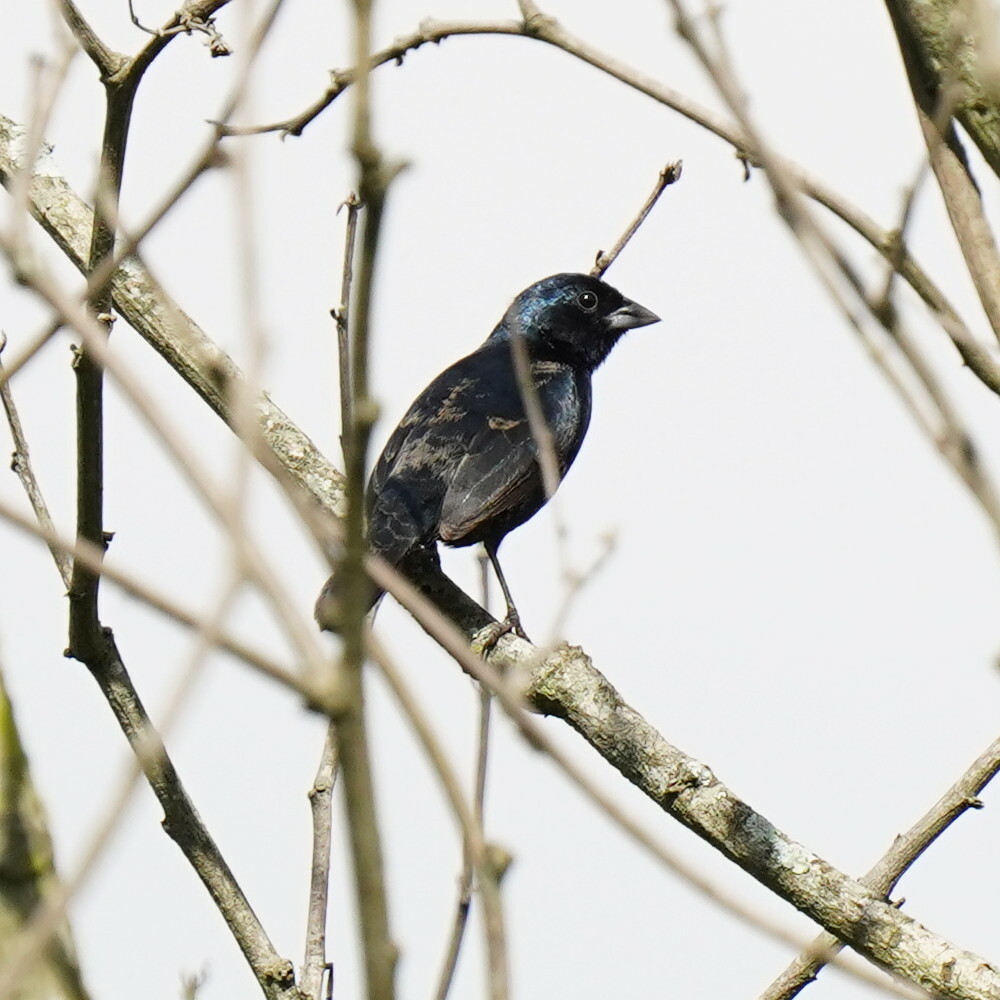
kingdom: Animalia
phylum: Chordata
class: Aves
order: Passeriformes
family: Thraupidae
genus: Volatinia
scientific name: Volatinia jacarina
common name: Blue-black grassquit
